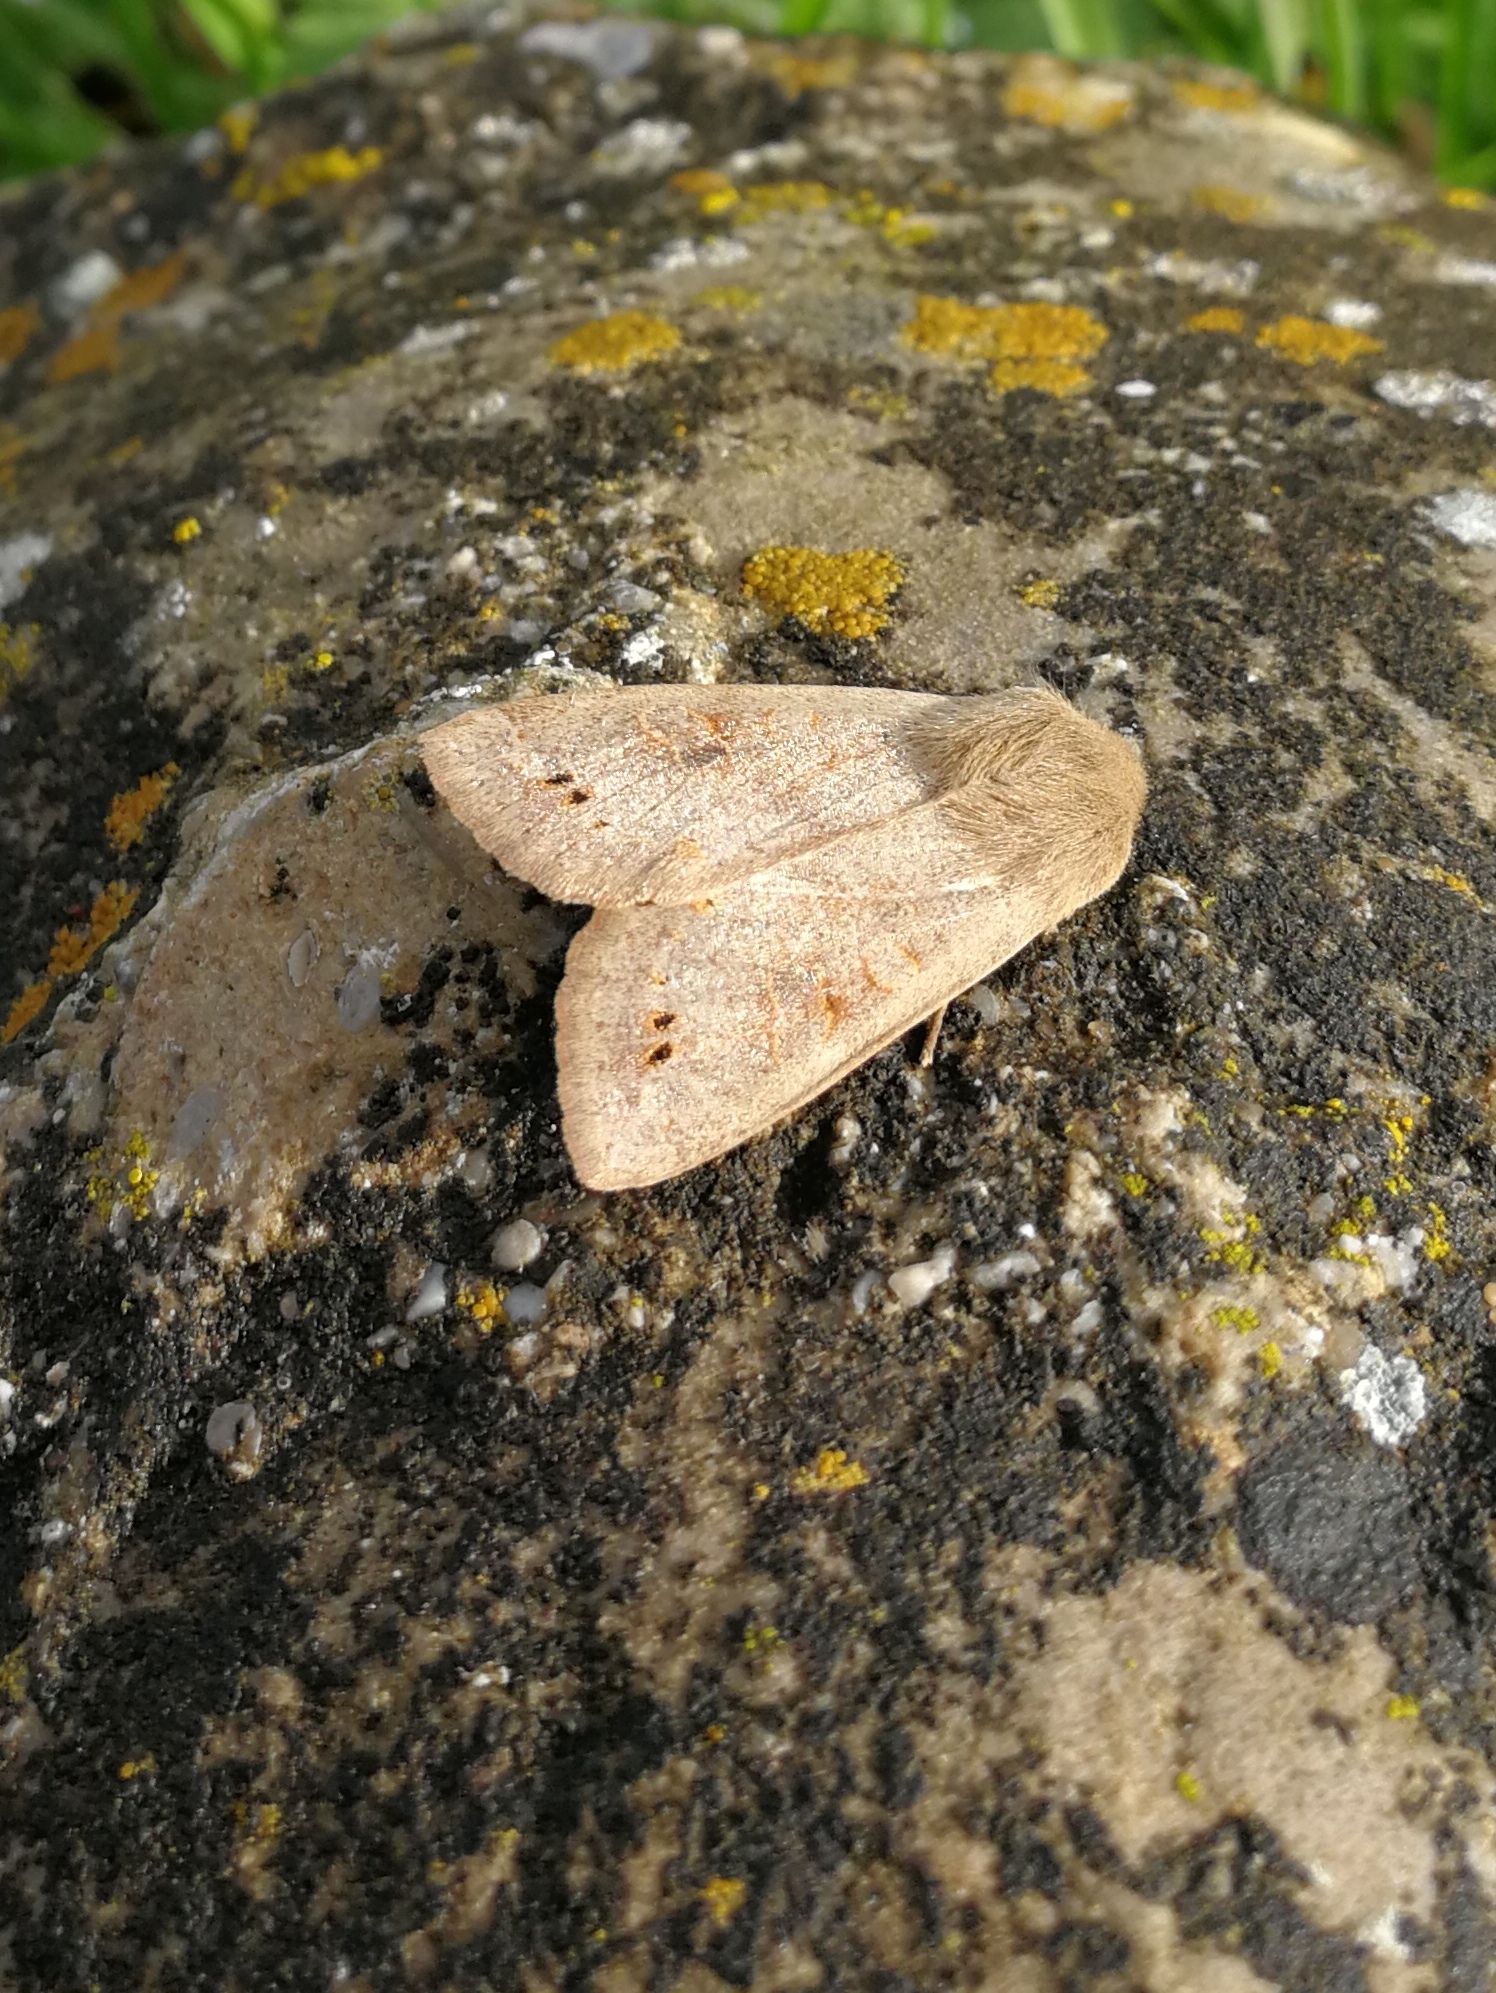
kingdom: Animalia
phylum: Arthropoda
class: Insecta
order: Lepidoptera
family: Noctuidae
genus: Anorthoa
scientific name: Anorthoa munda
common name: Twin-spotted quaker
